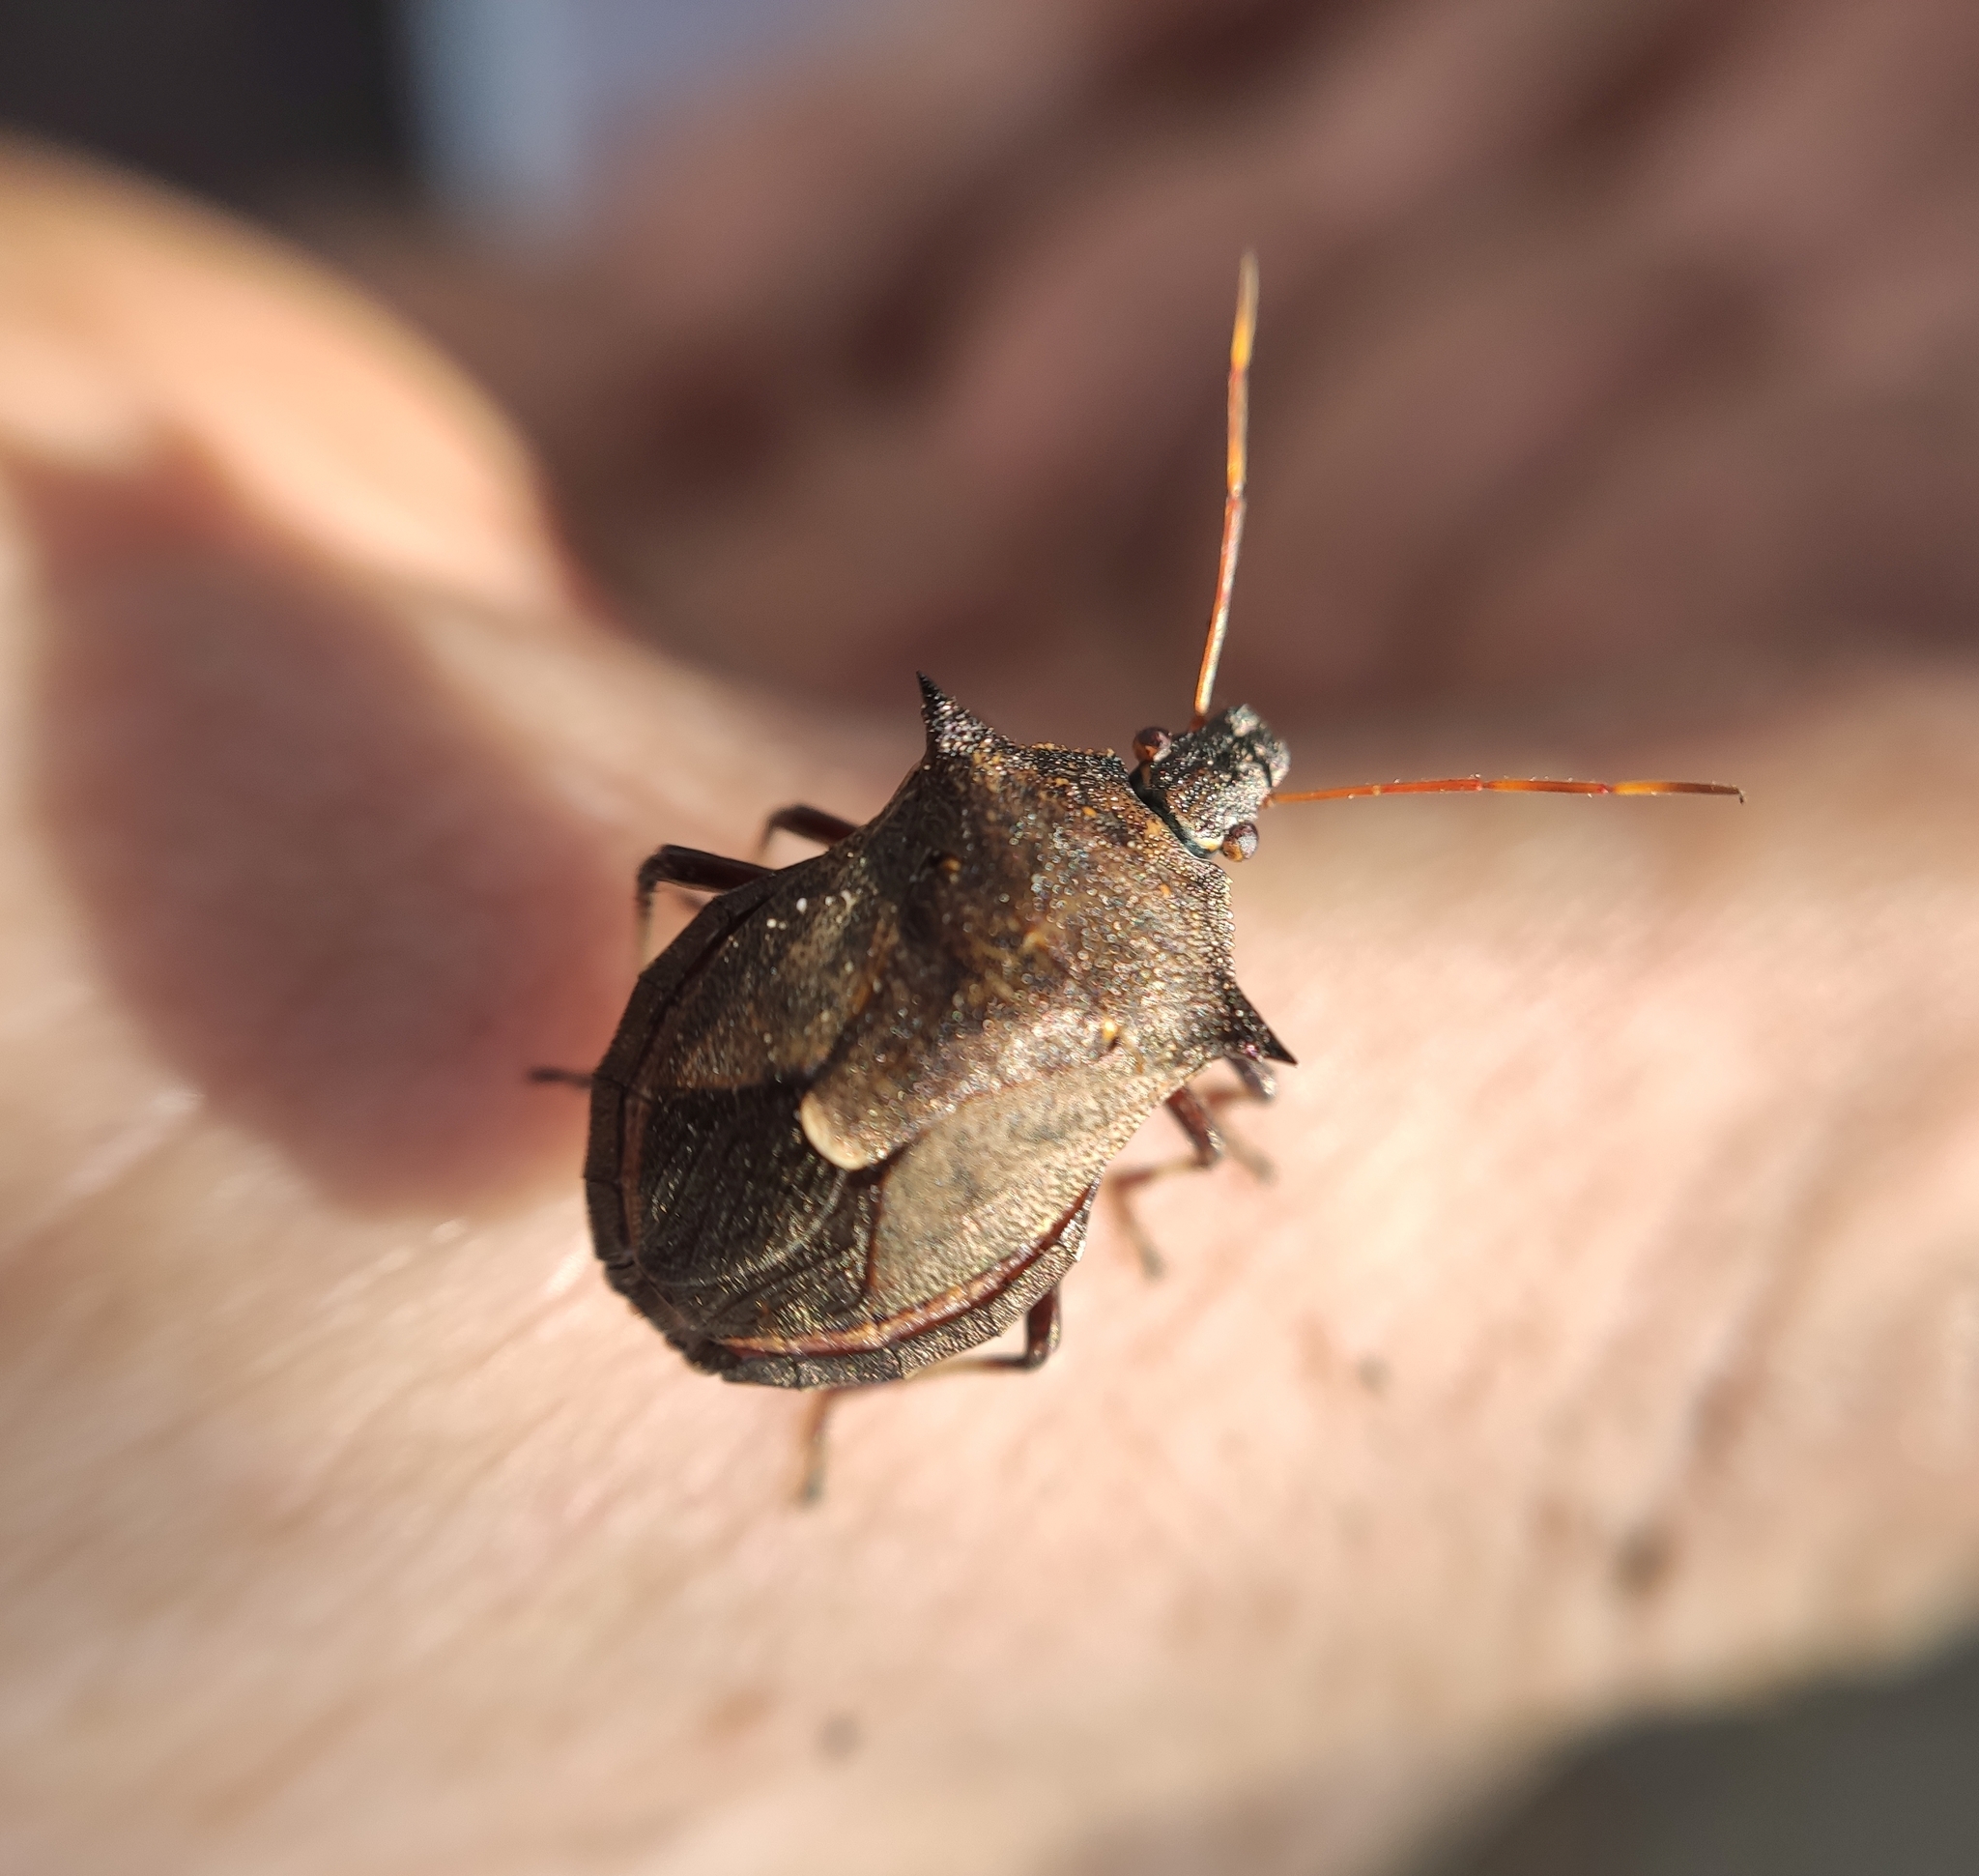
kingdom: Animalia
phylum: Arthropoda
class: Insecta
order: Hemiptera
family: Pentatomidae
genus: Picromerus
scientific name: Picromerus bidens
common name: Spiked shieldbug
